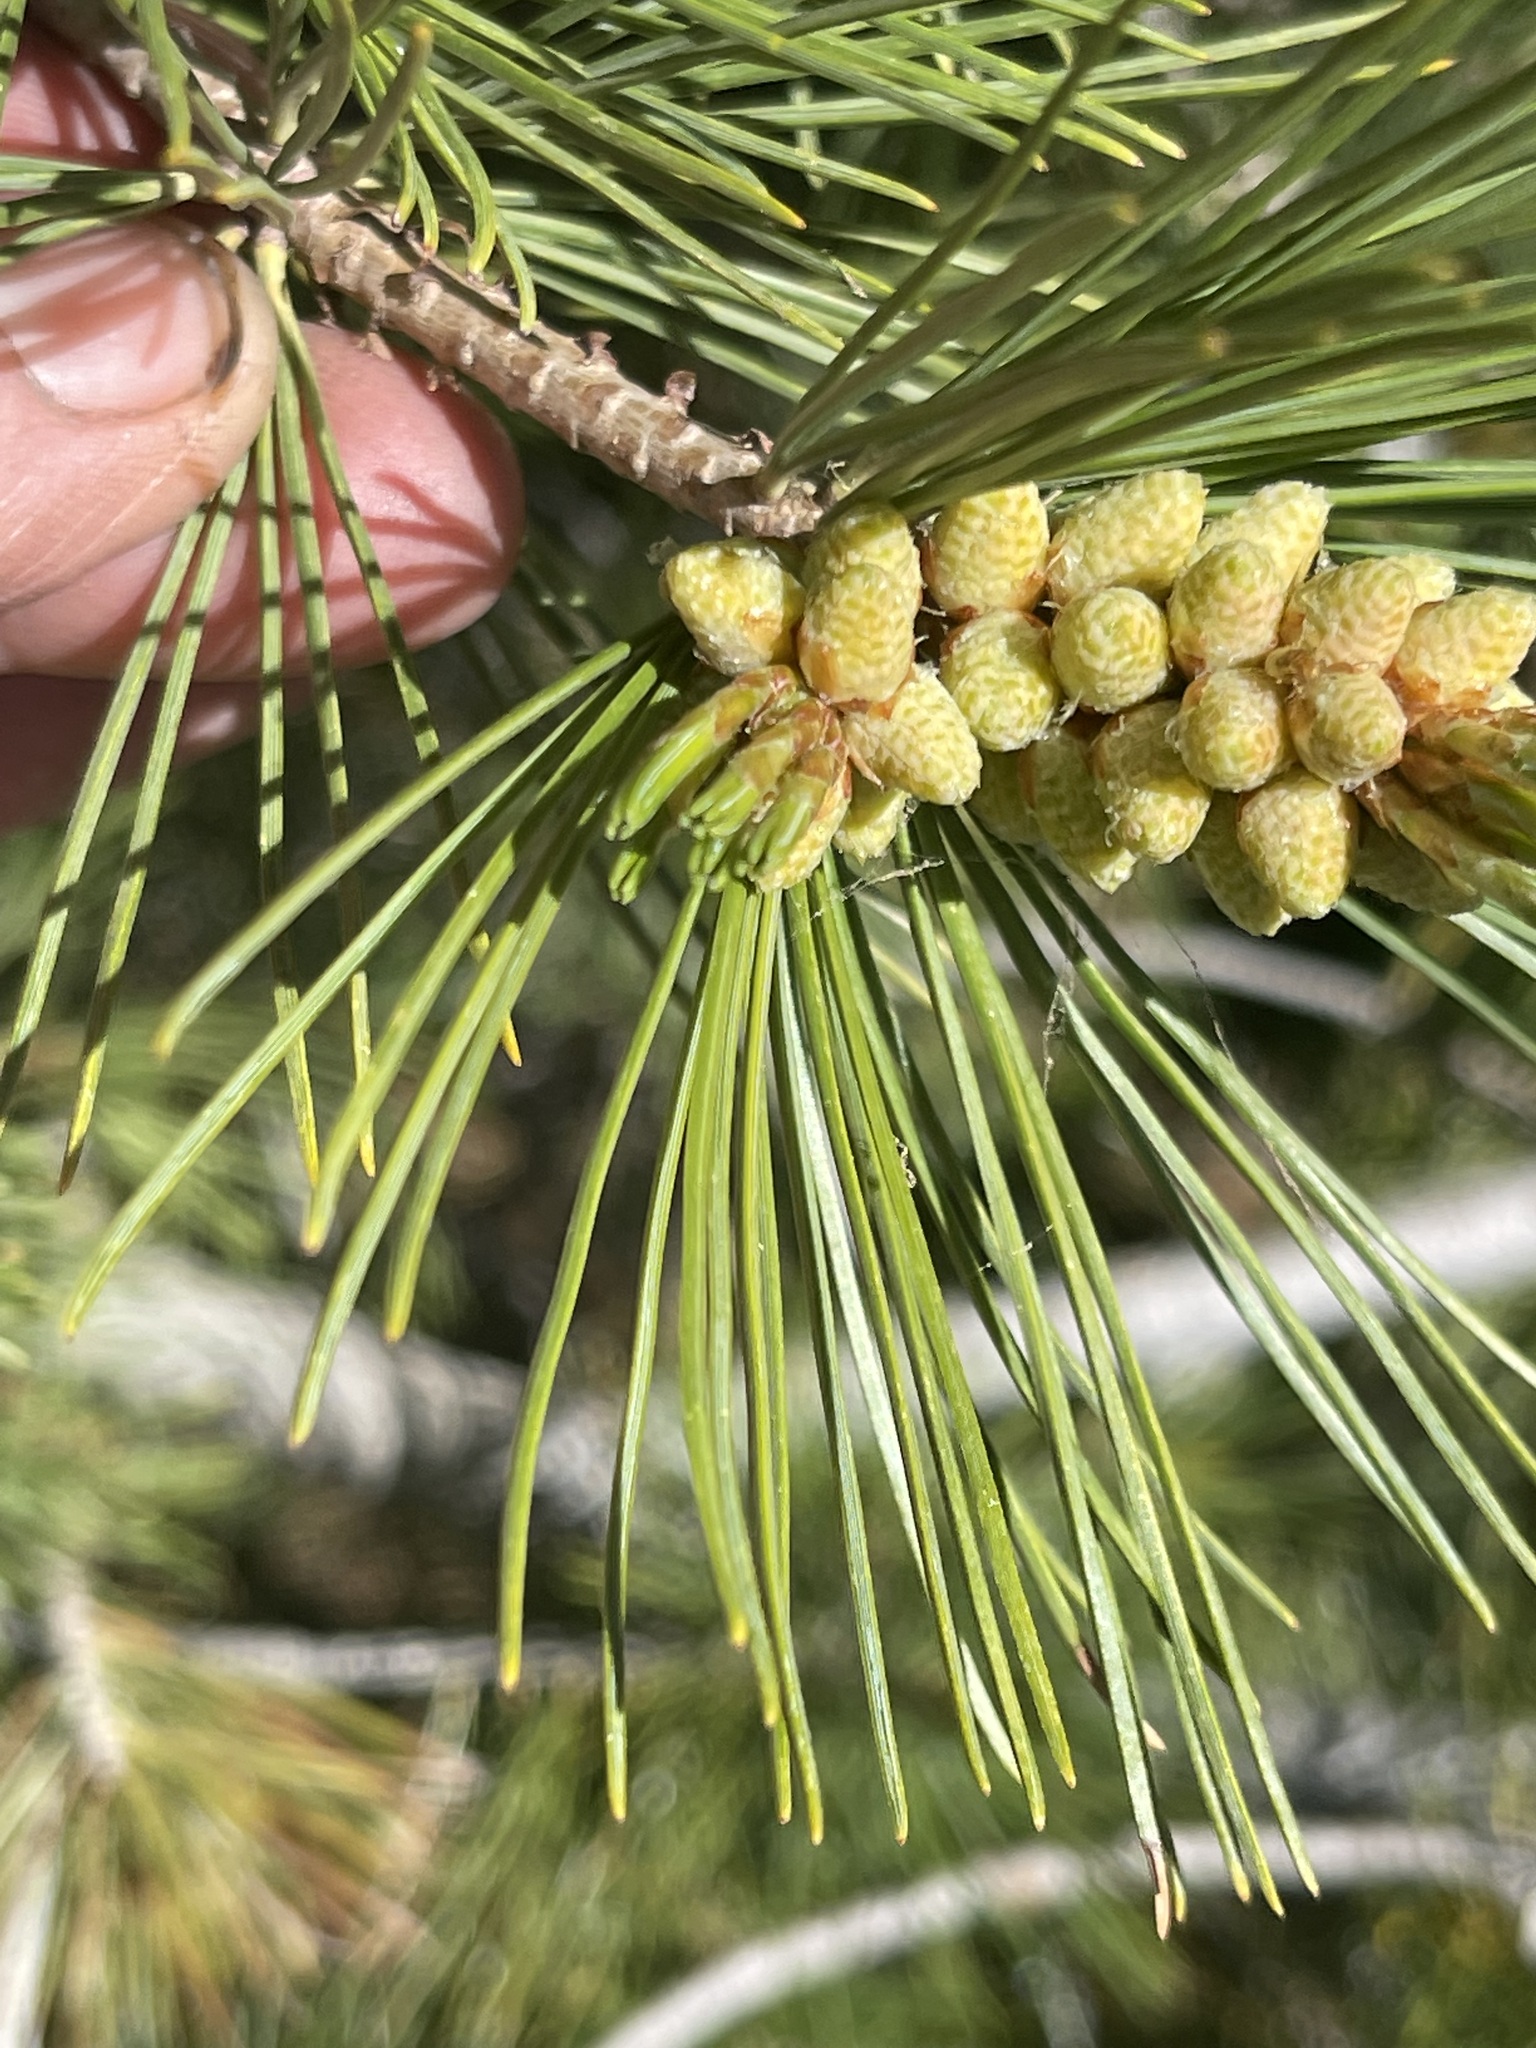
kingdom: Plantae
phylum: Tracheophyta
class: Pinopsida
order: Pinales
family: Pinaceae
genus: Pinus
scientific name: Pinus monticola
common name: Western white pine
